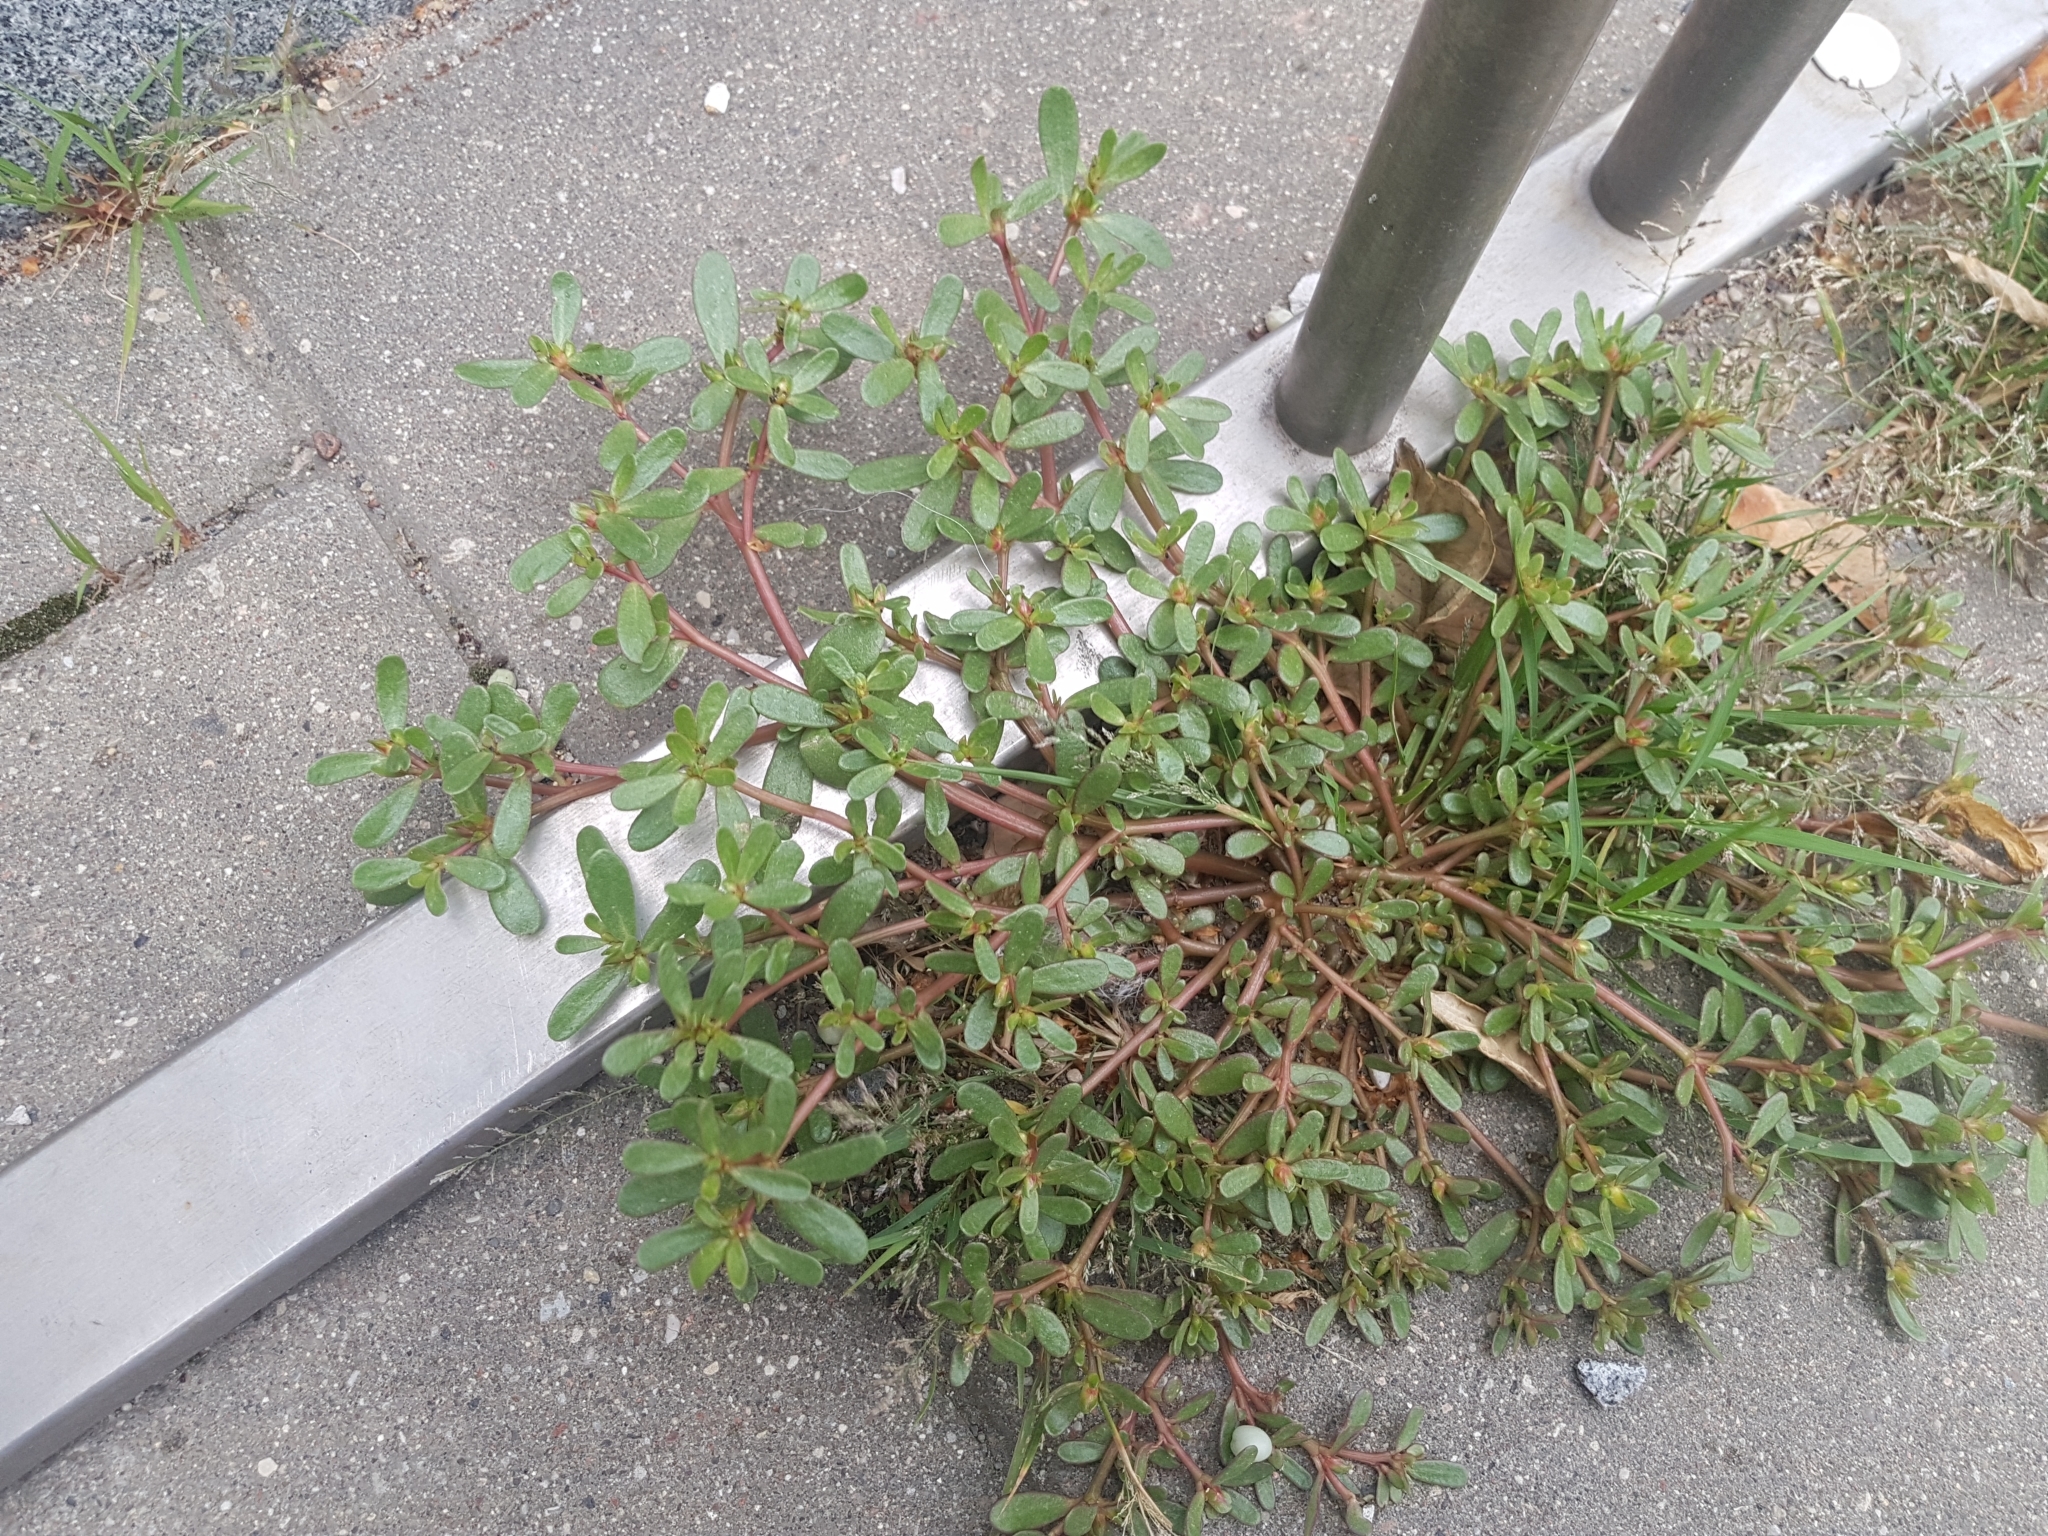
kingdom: Plantae
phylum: Tracheophyta
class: Magnoliopsida
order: Caryophyllales
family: Portulacaceae
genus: Portulaca
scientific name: Portulaca oleracea
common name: Common purslane
